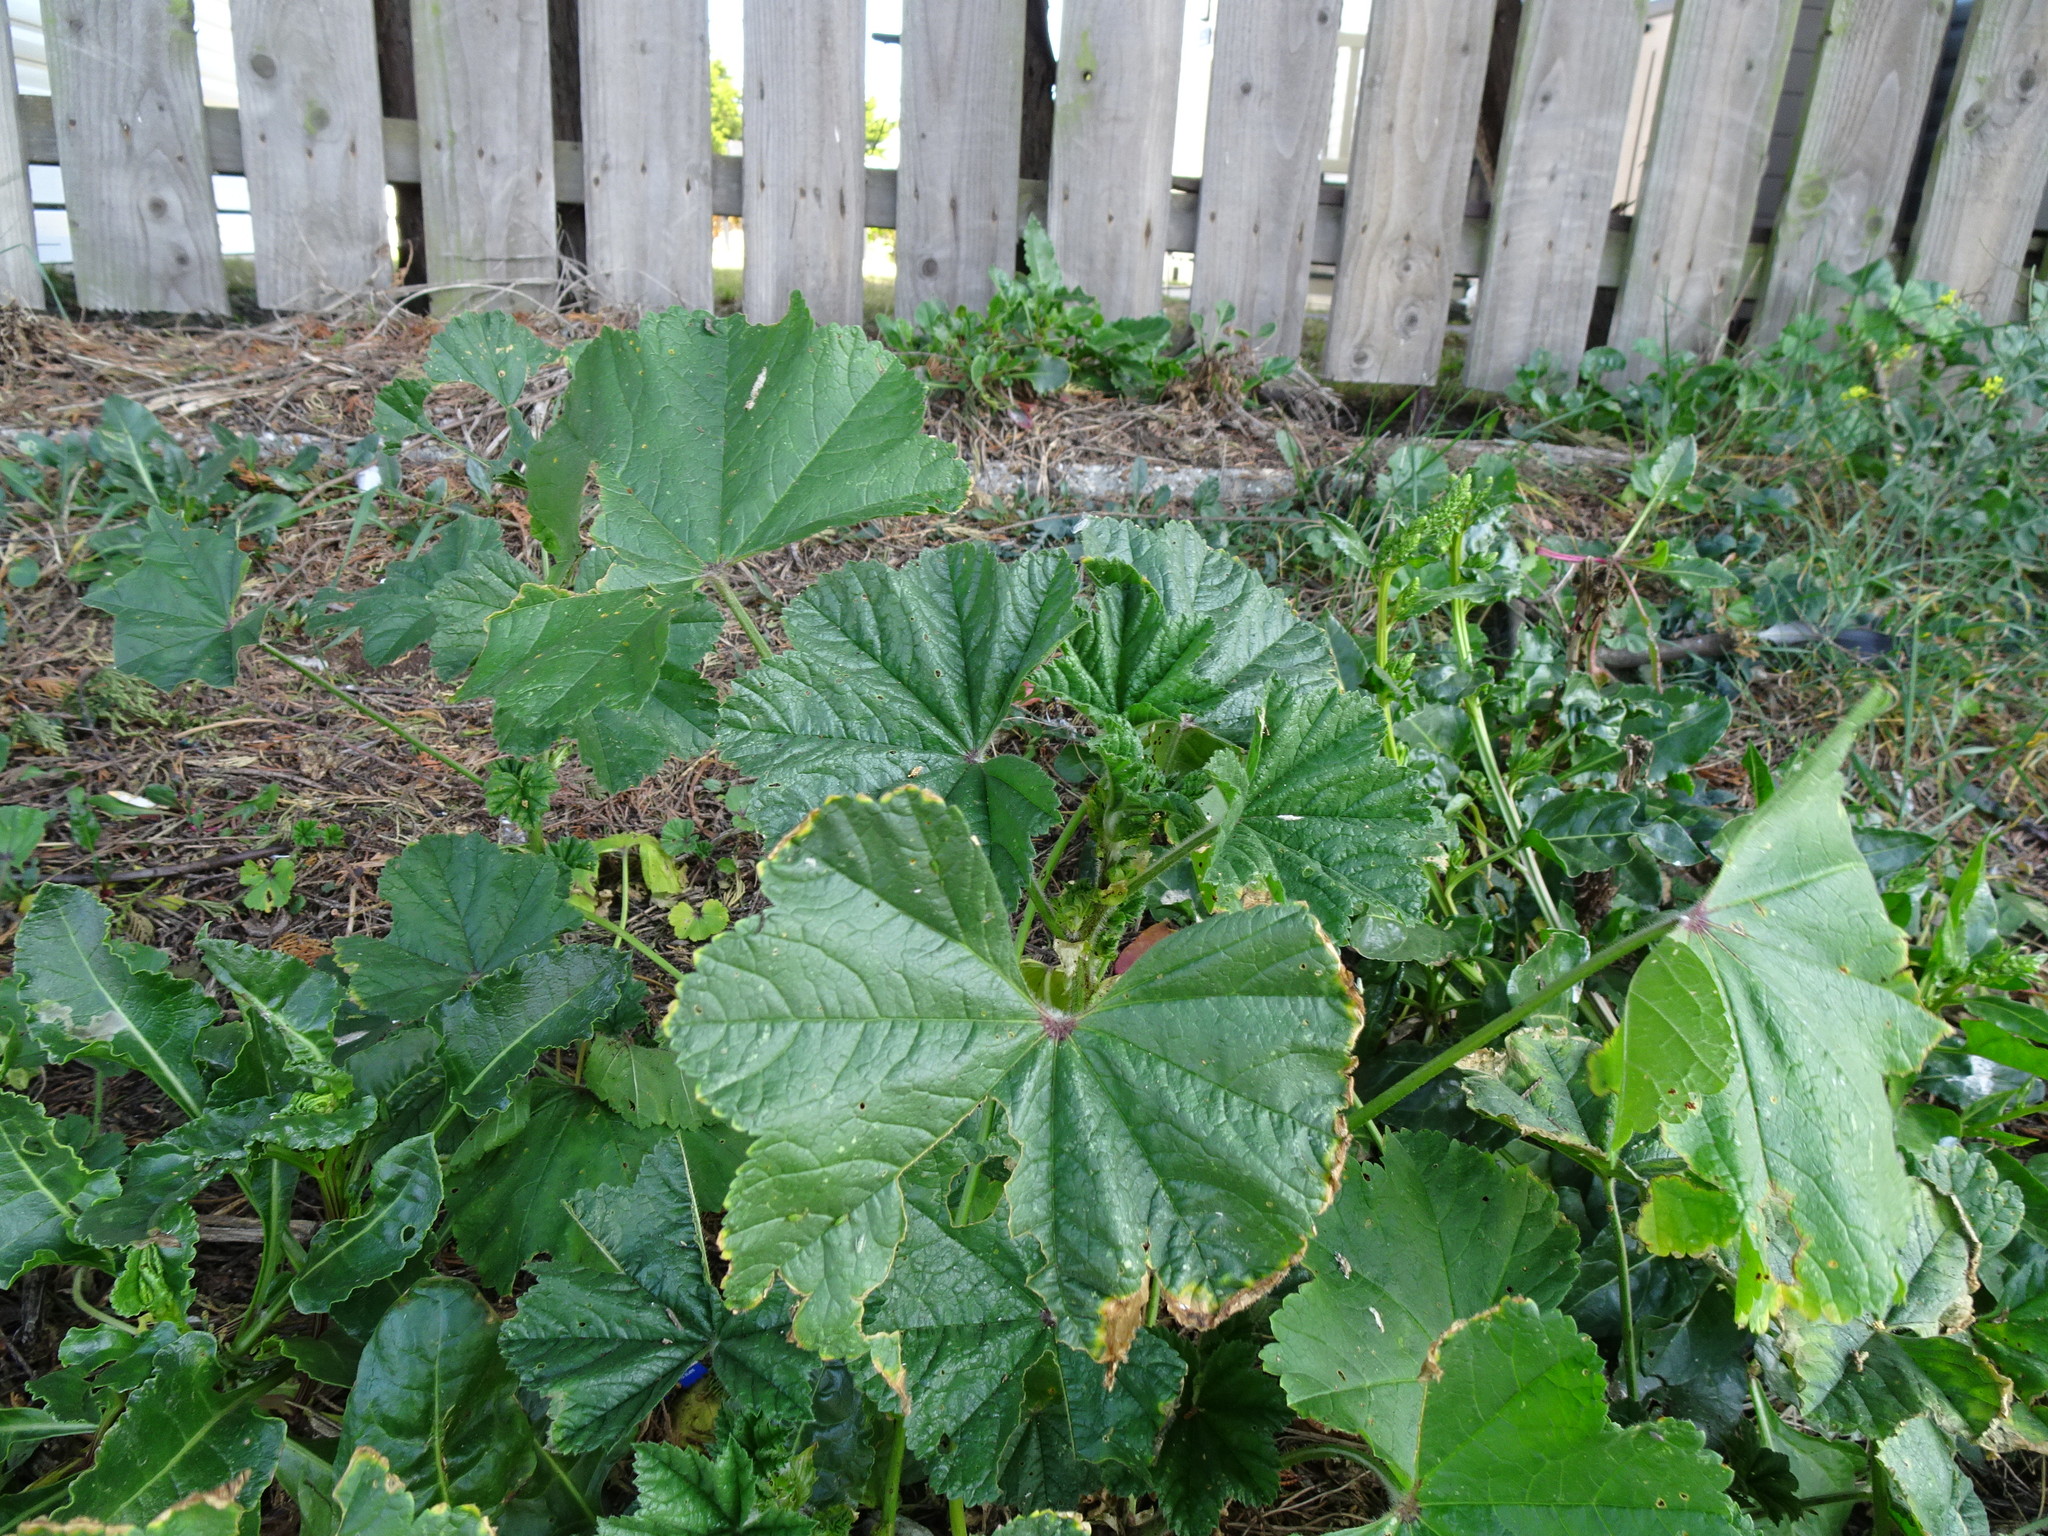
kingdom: Plantae
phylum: Tracheophyta
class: Magnoliopsida
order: Malvales
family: Malvaceae
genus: Malva
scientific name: Malva sylvestris
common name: Common mallow
